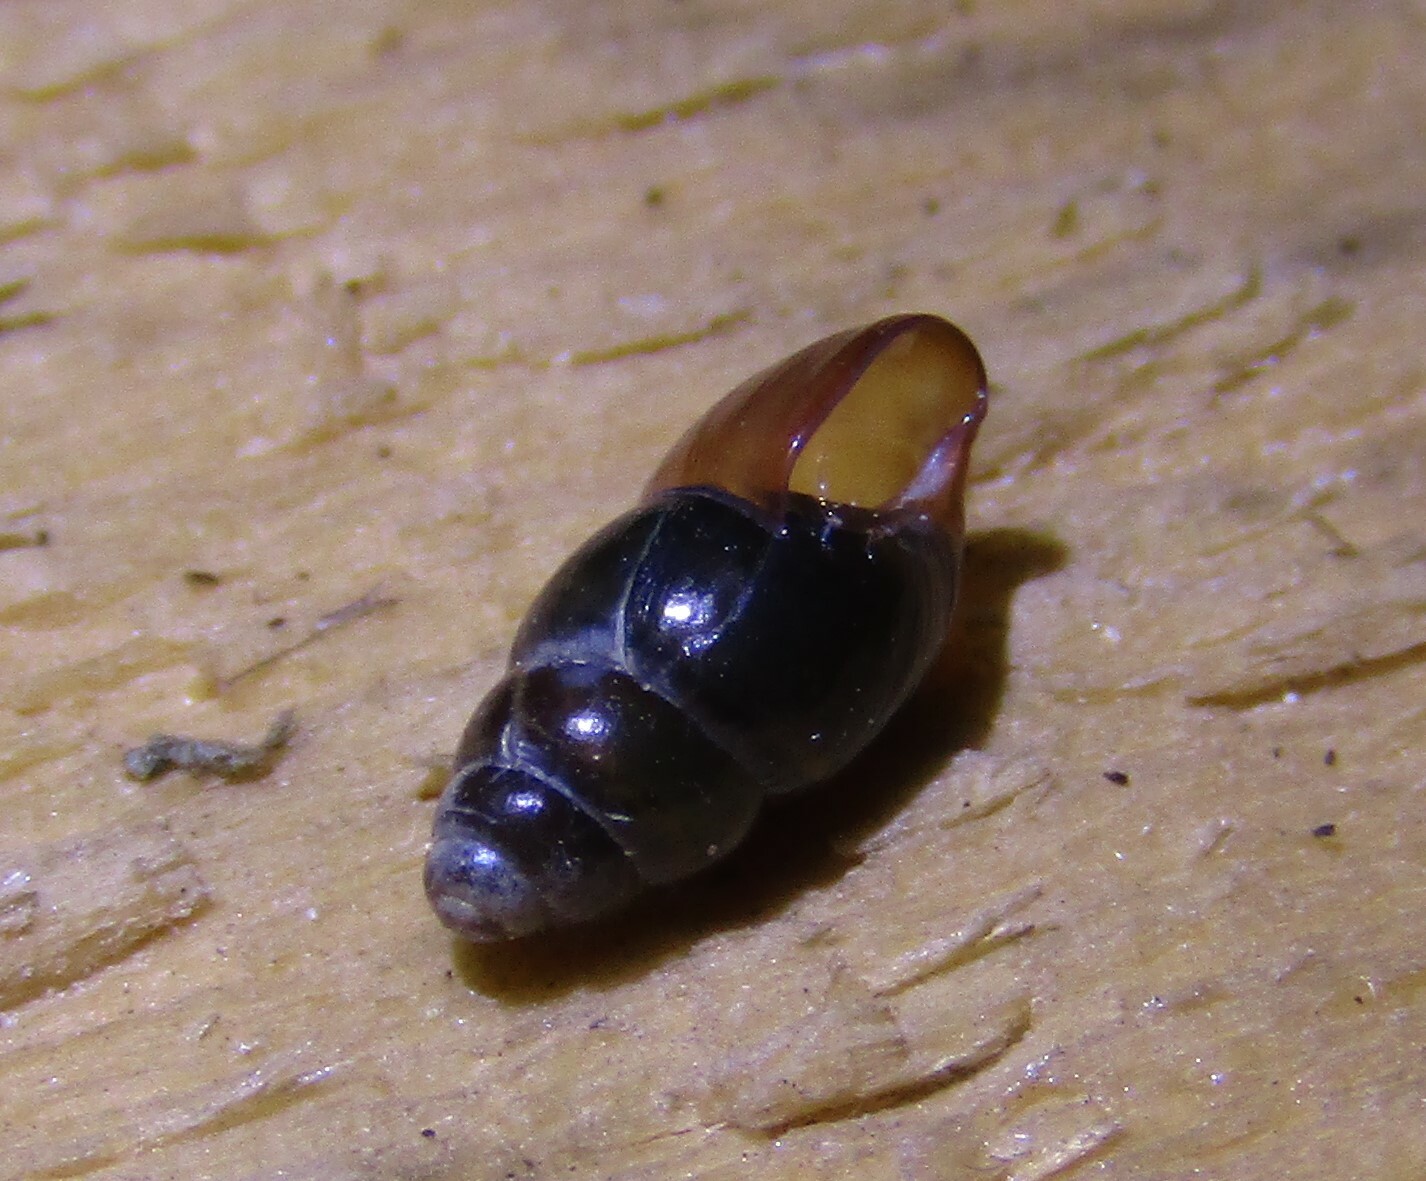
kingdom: Animalia
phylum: Mollusca
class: Gastropoda
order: Stylommatophora
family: Cochlicopidae
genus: Cochlicopa
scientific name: Cochlicopa lubrica
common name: Glossy pillar snail
